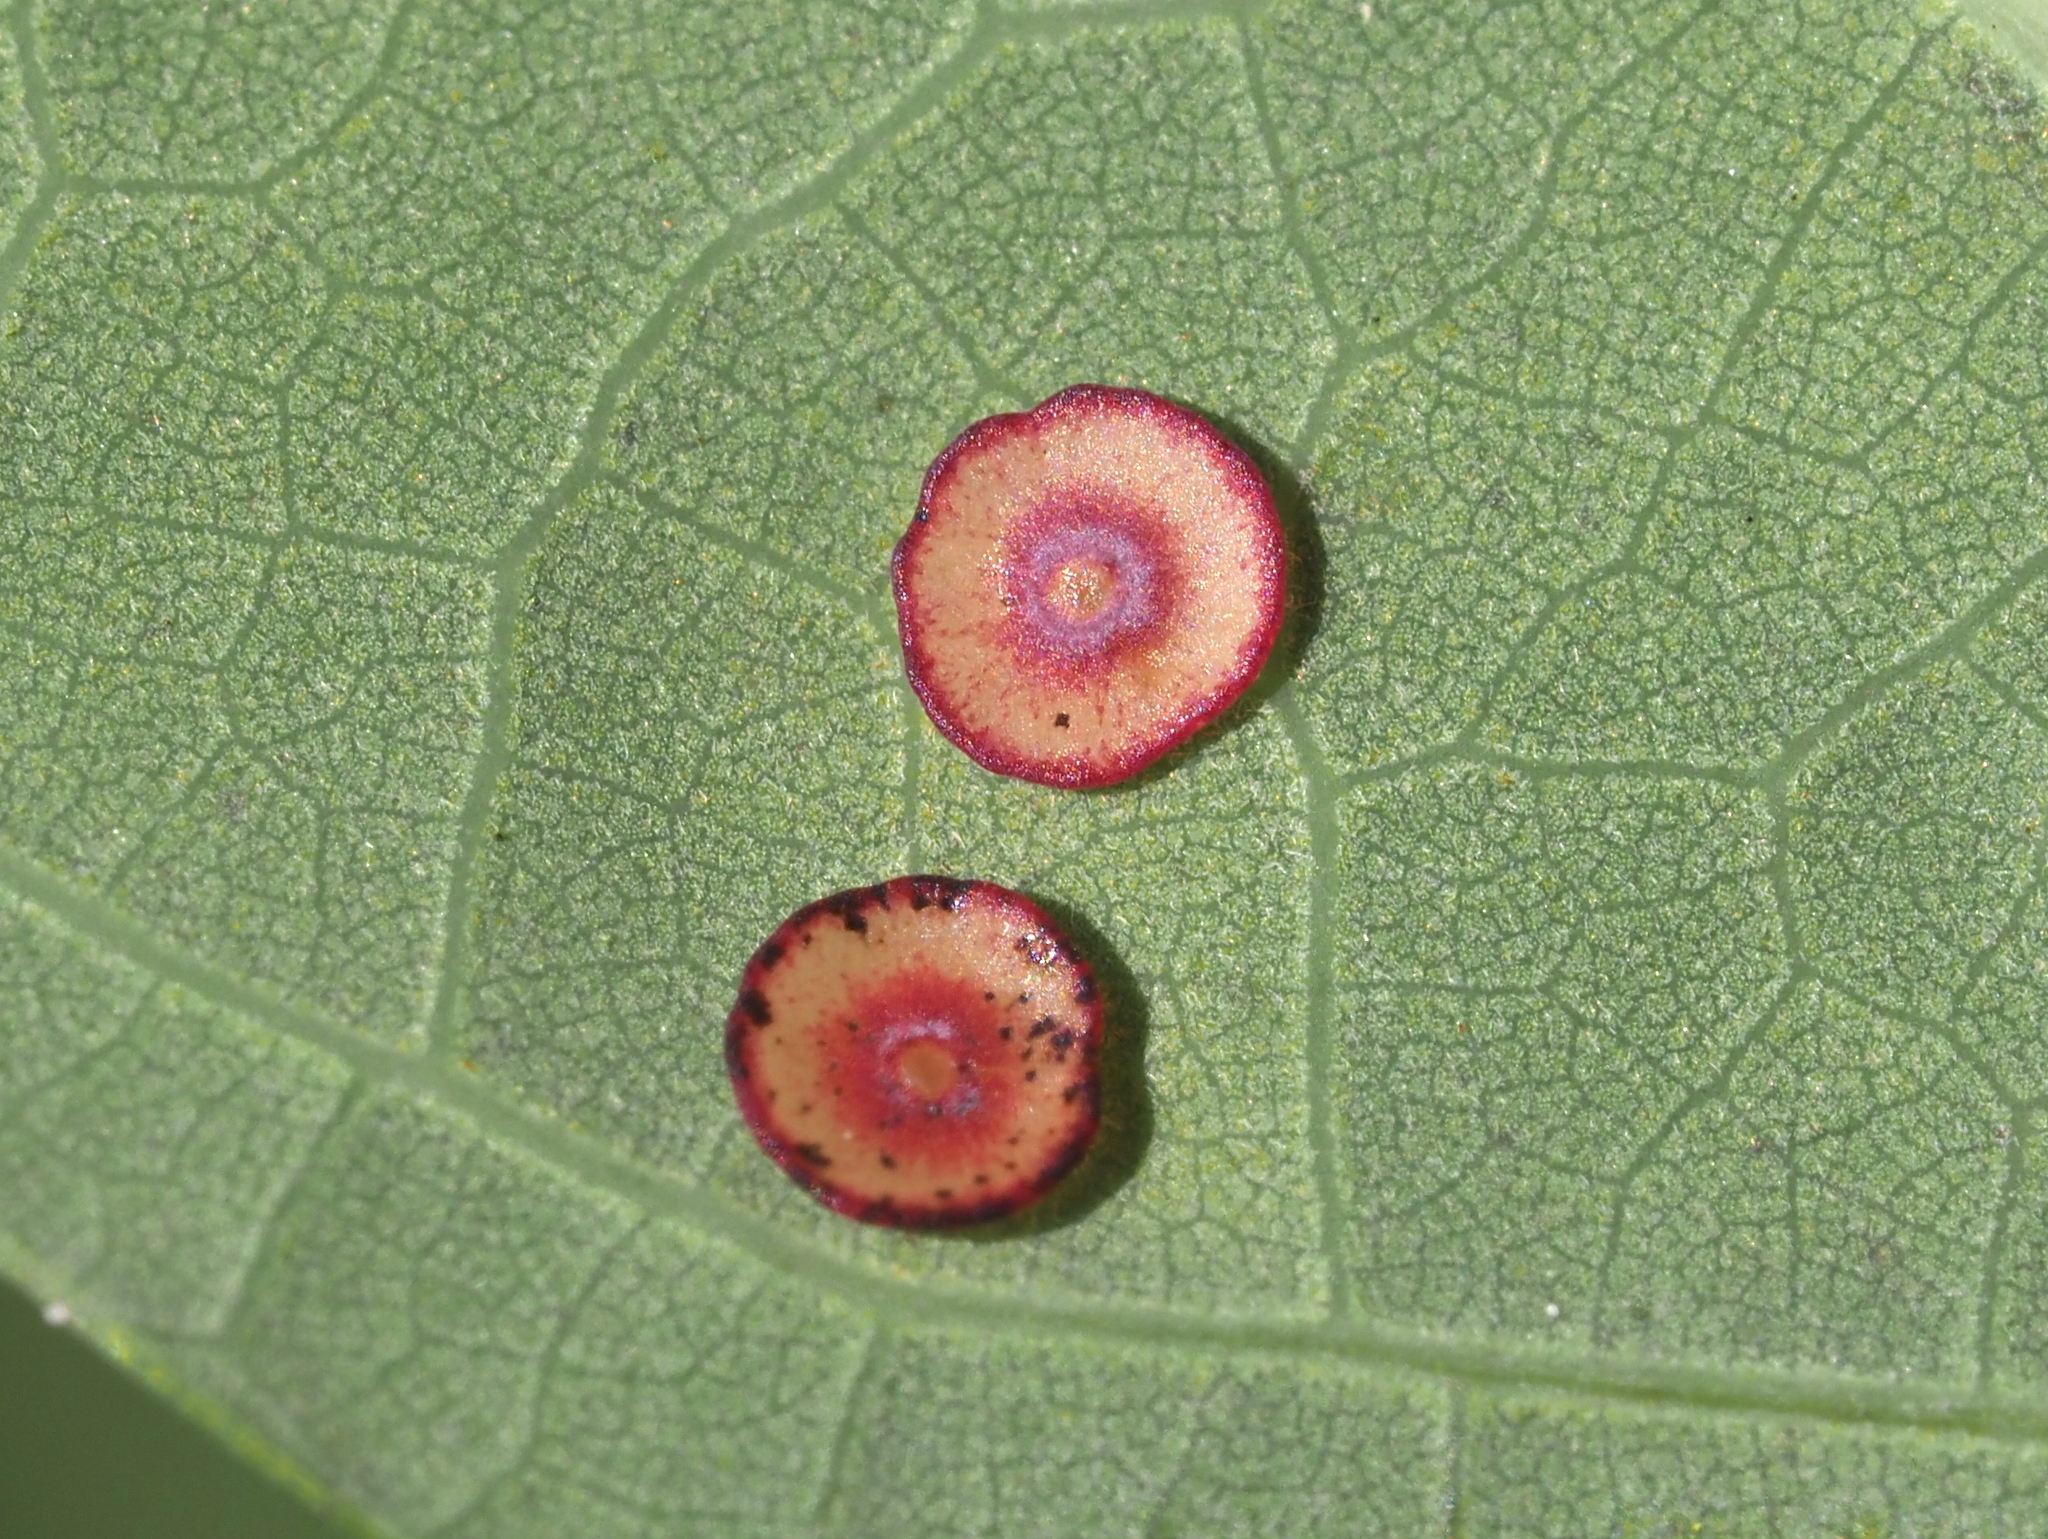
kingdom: Animalia
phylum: Arthropoda
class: Insecta
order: Hymenoptera
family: Cynipidae
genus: Phylloteras
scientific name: Phylloteras poculum
